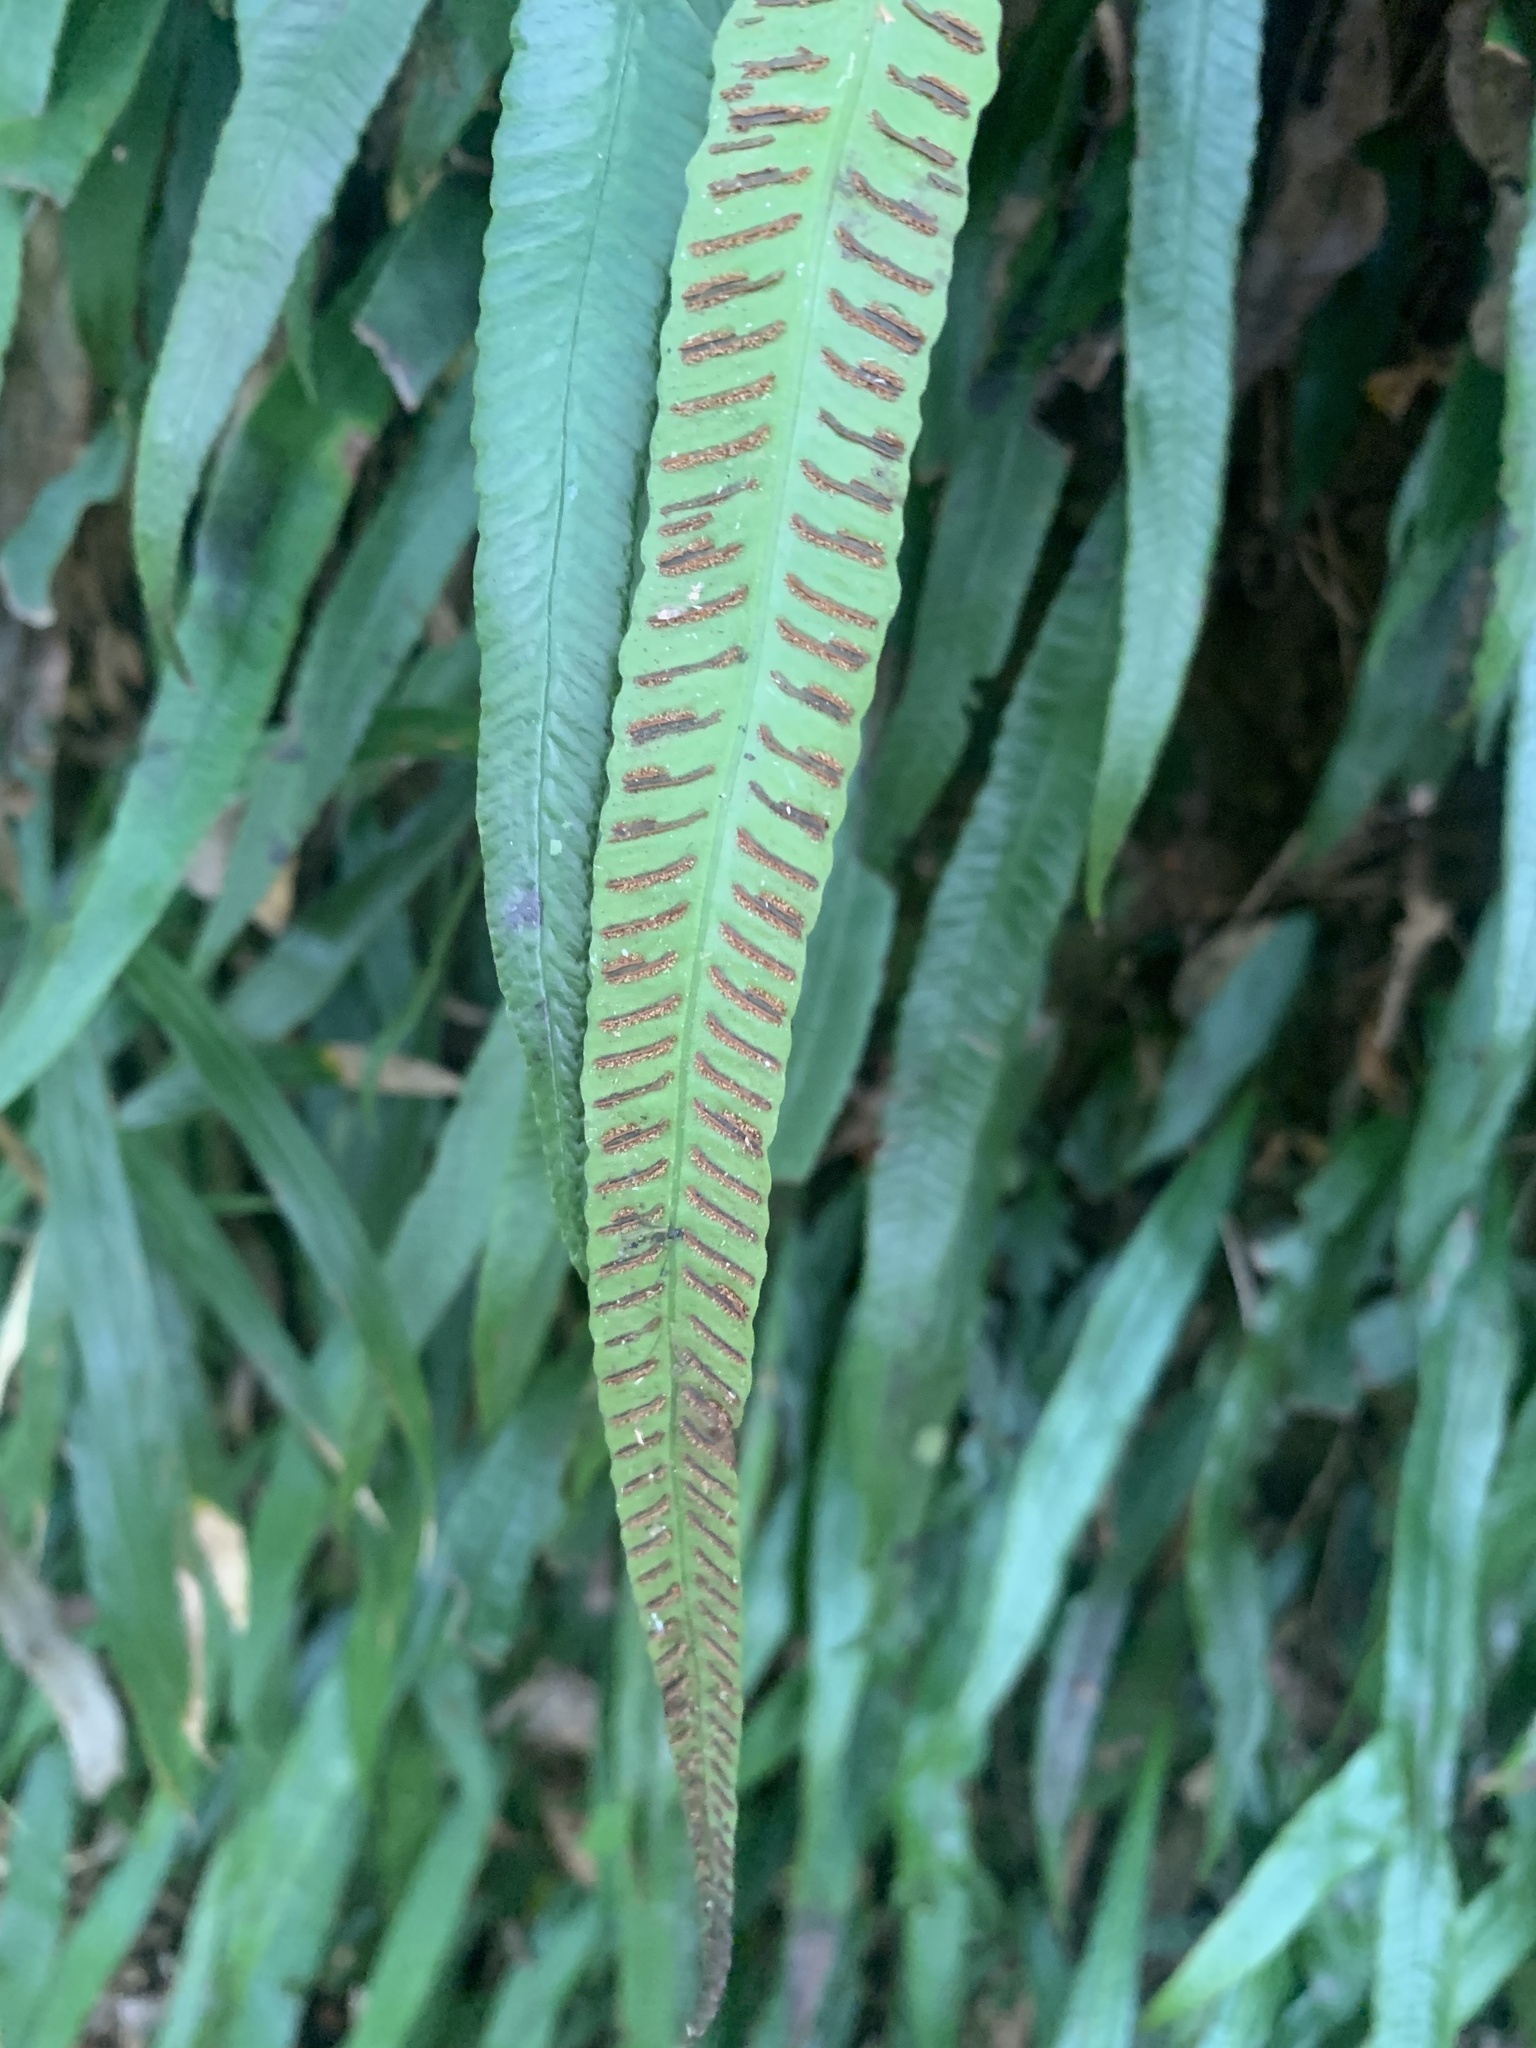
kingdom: Plantae
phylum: Tracheophyta
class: Polypodiopsida
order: Polypodiales
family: Athyriaceae
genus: Deparia
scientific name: Deparia lancea
